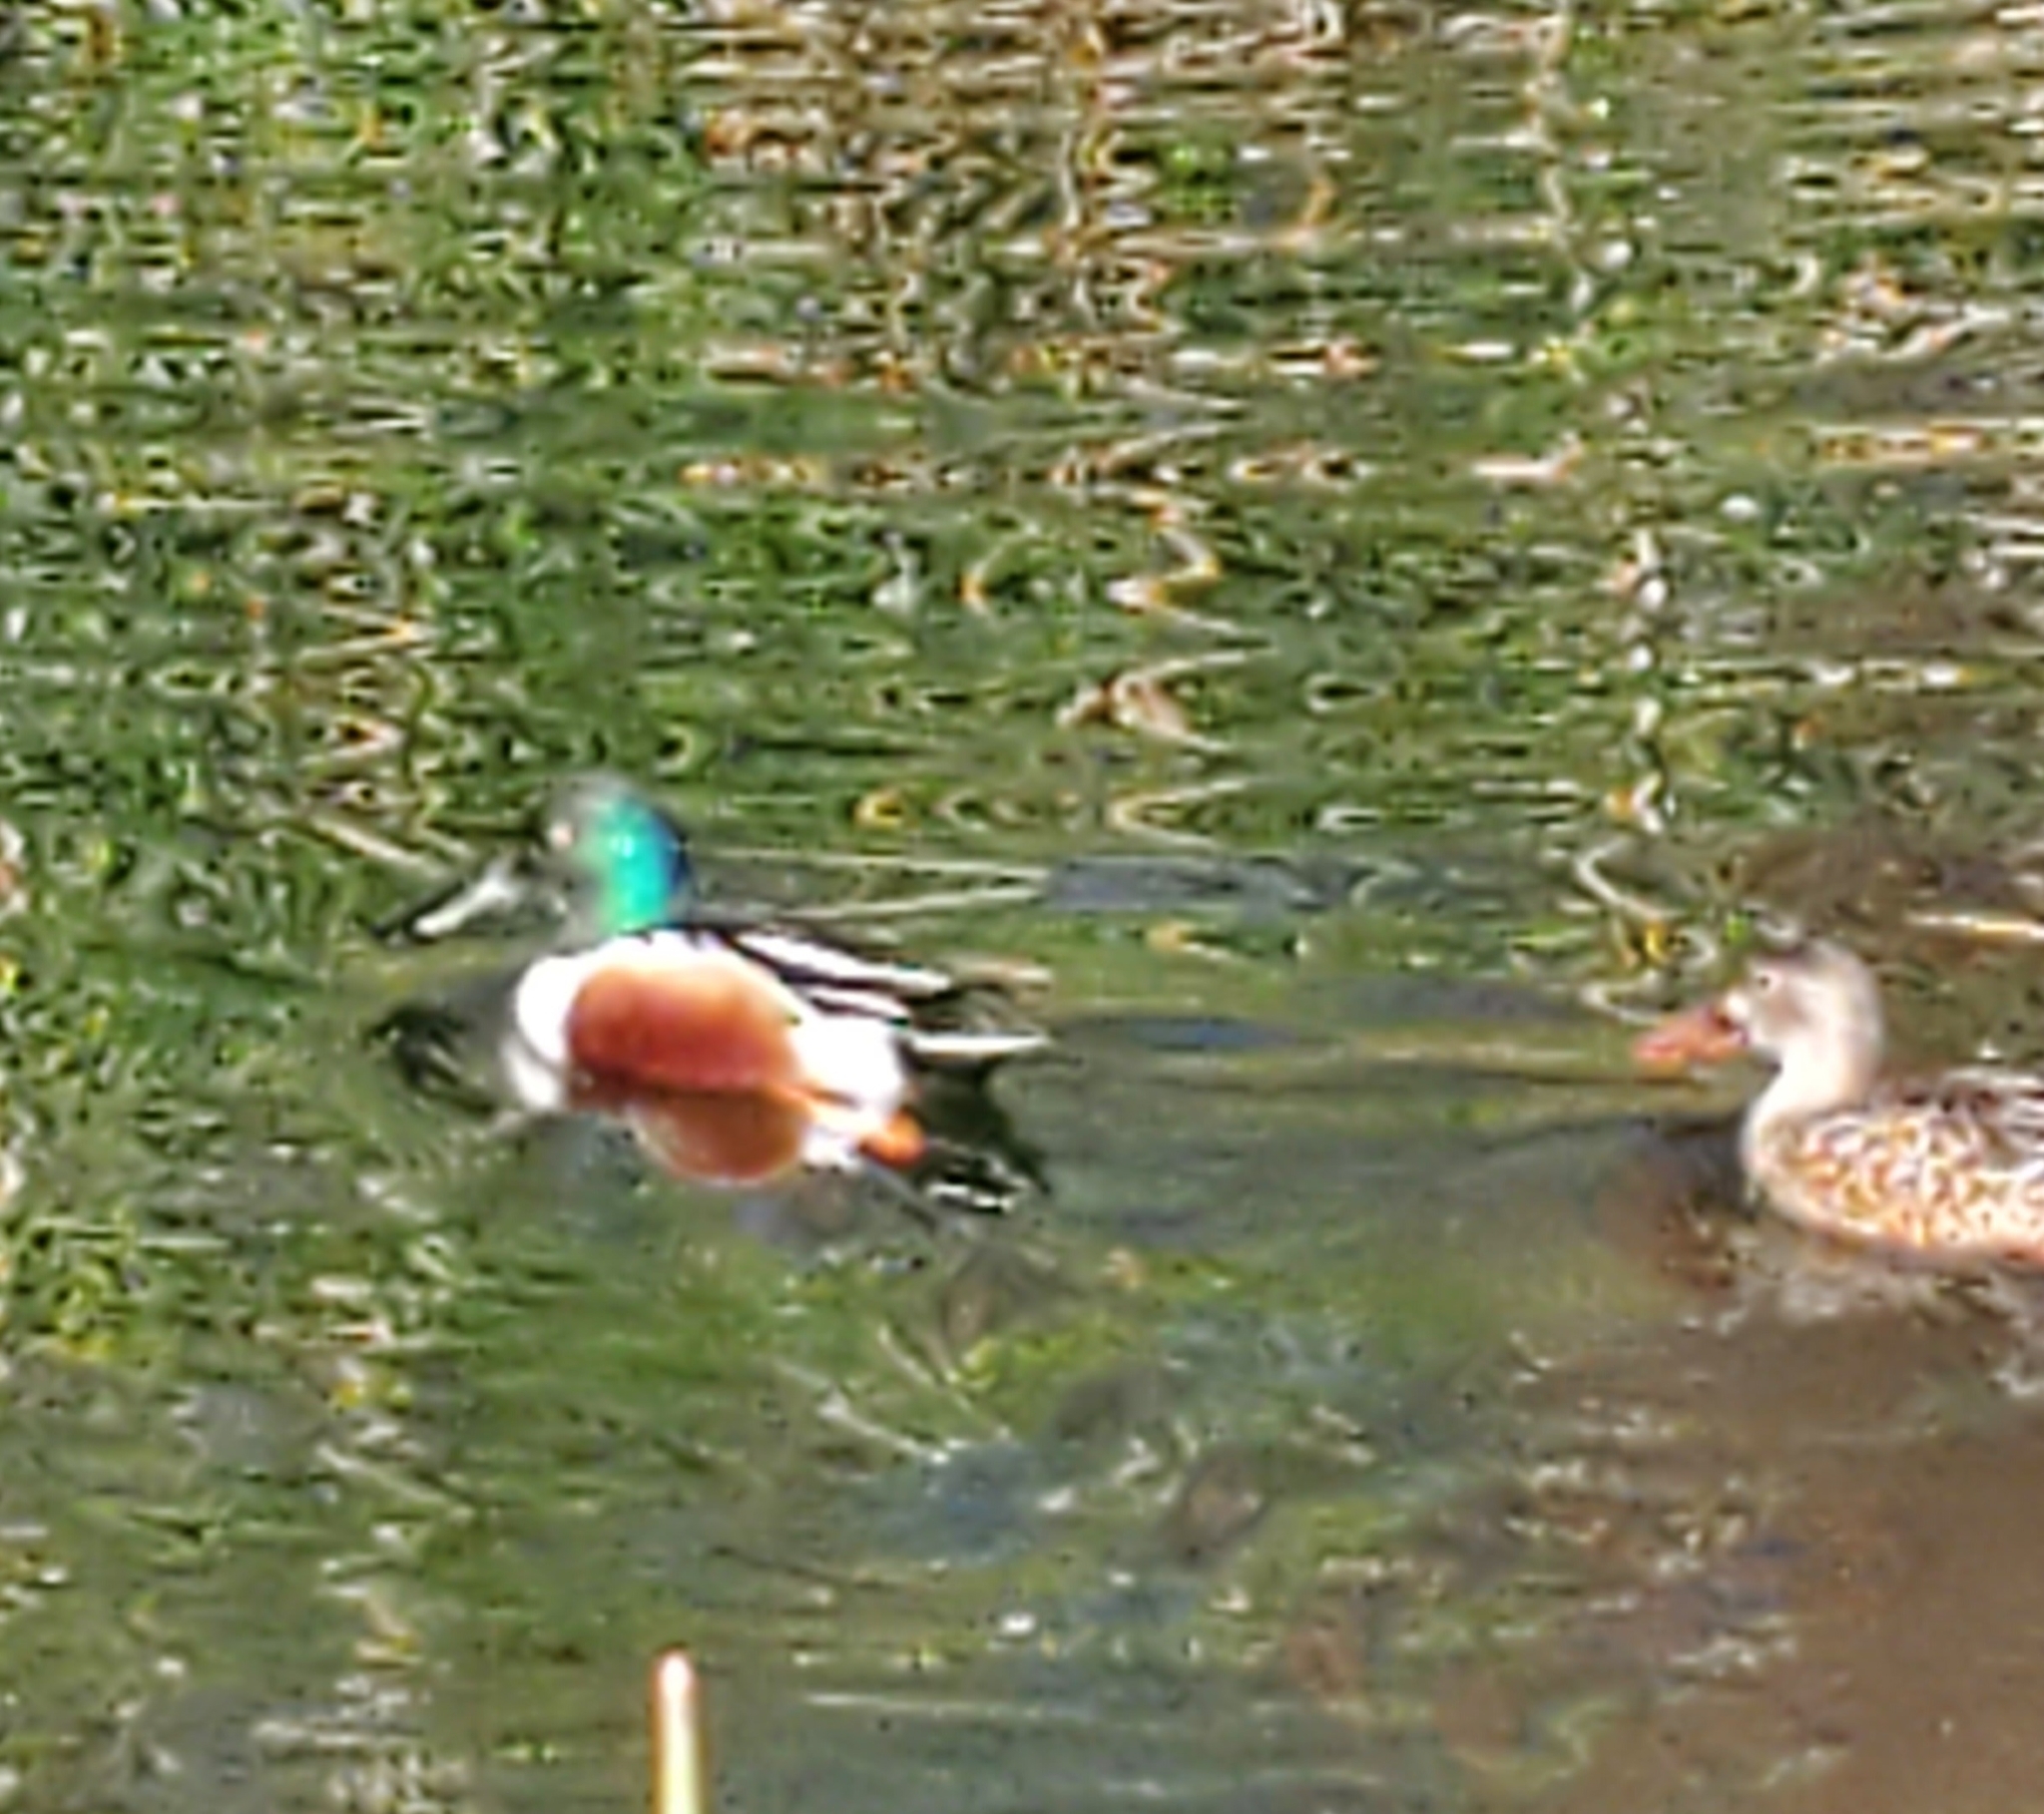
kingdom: Animalia
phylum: Chordata
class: Aves
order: Anseriformes
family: Anatidae
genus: Spatula
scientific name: Spatula clypeata
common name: Northern shoveler
